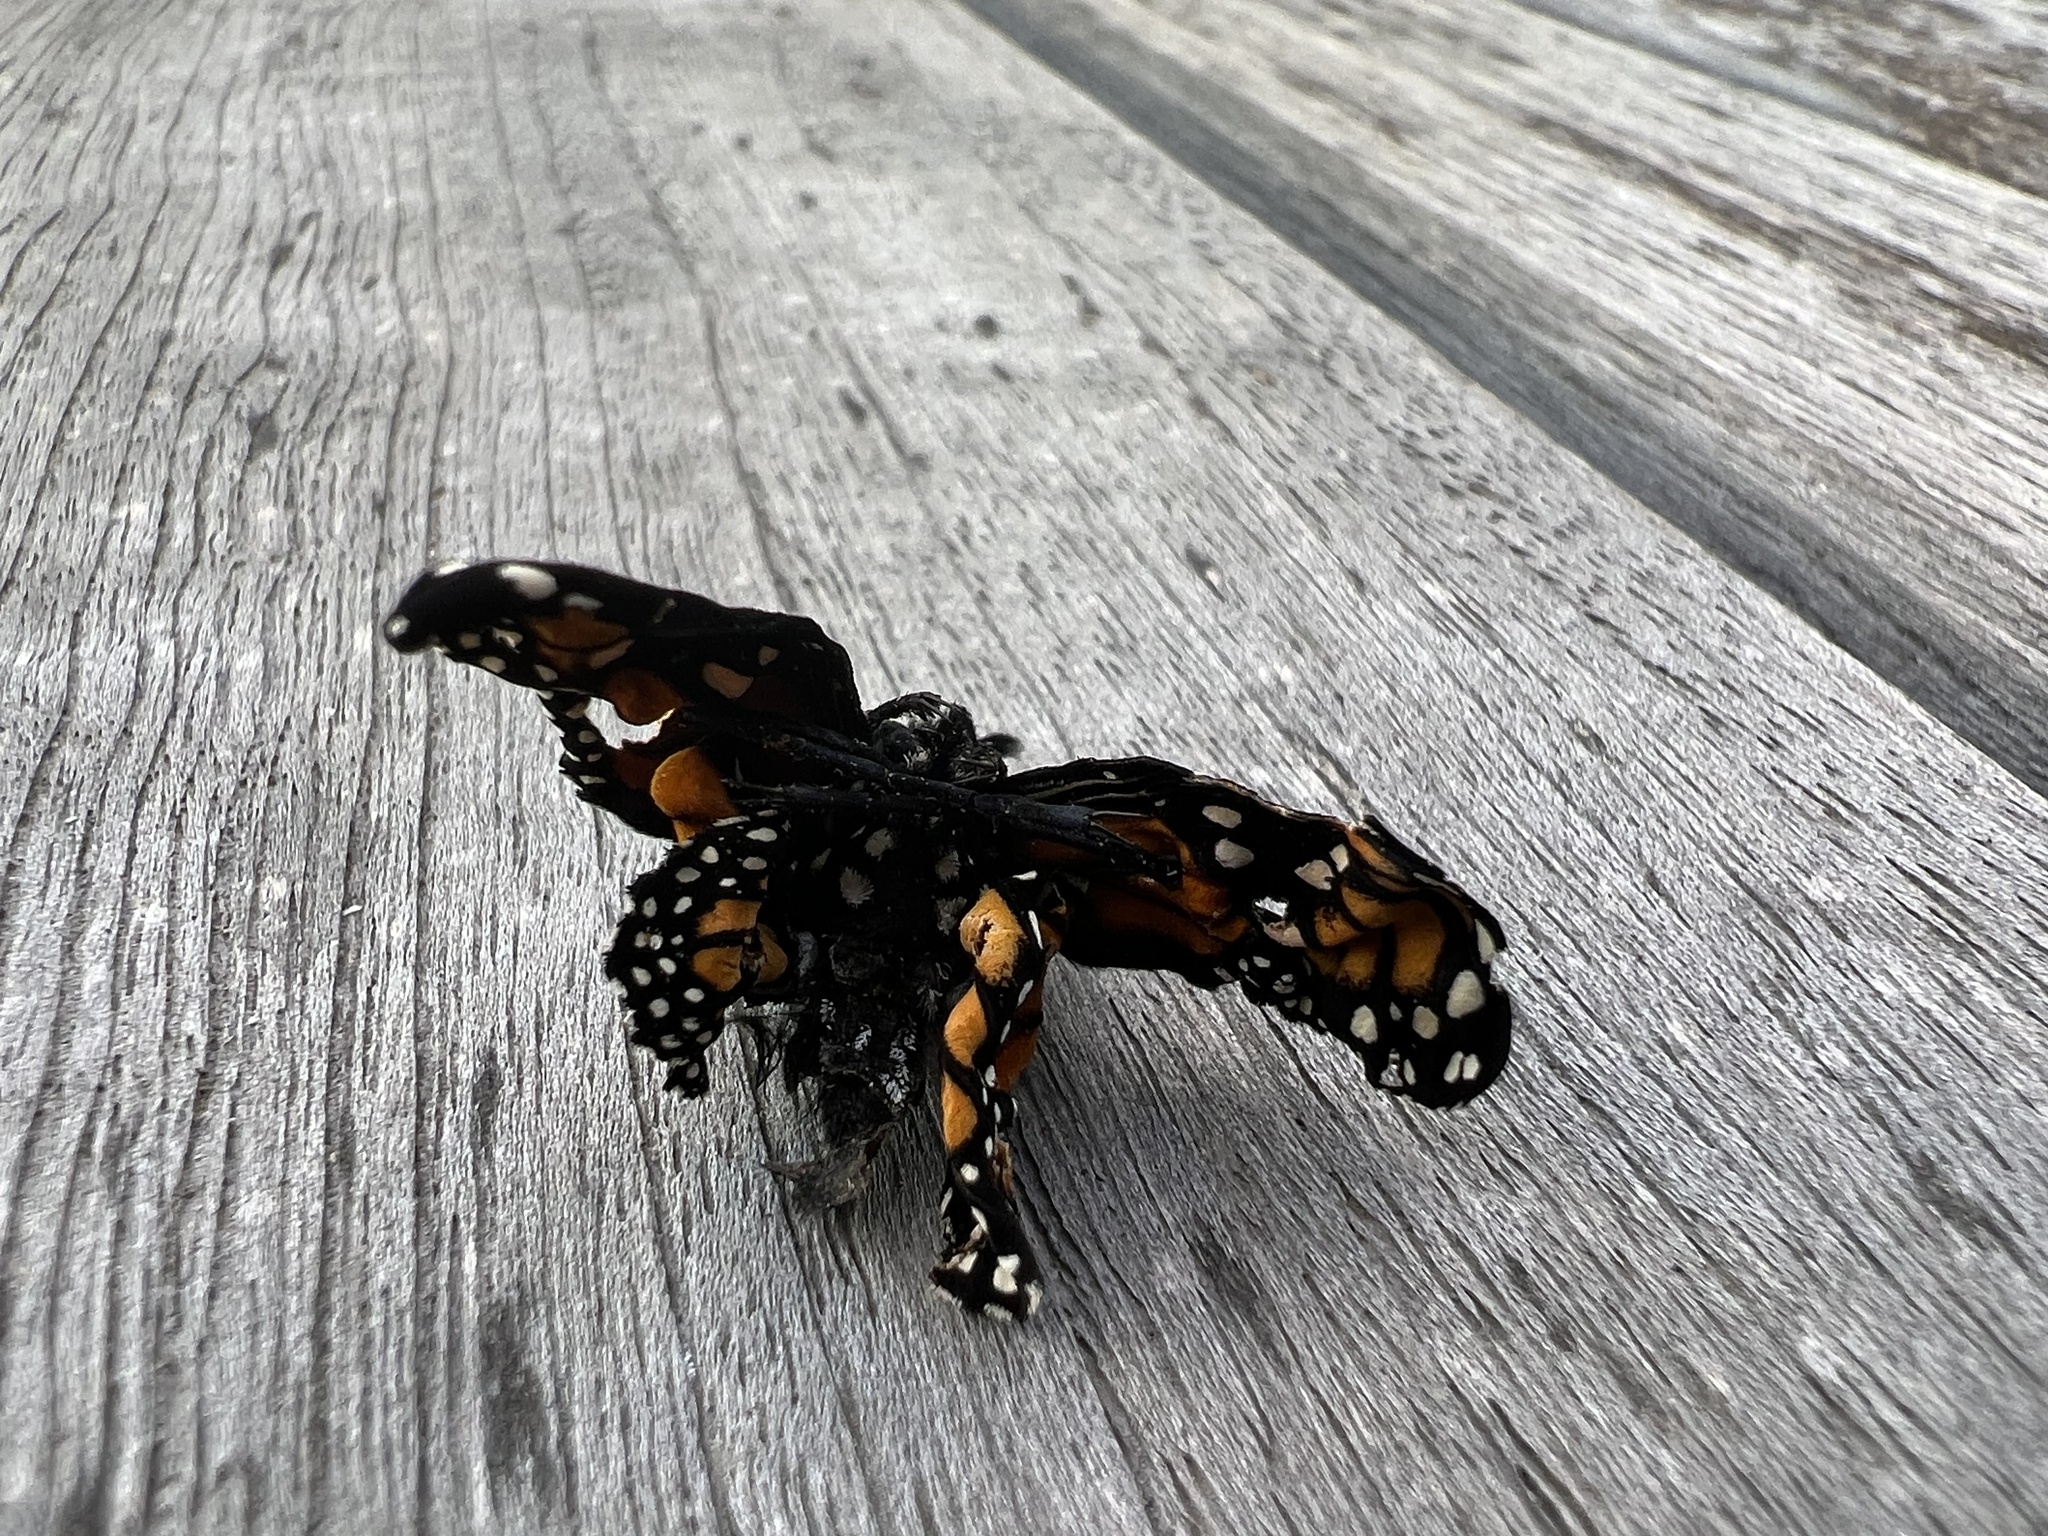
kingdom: Animalia
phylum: Arthropoda
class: Insecta
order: Lepidoptera
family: Nymphalidae
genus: Danaus
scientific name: Danaus plexippus
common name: Monarch
